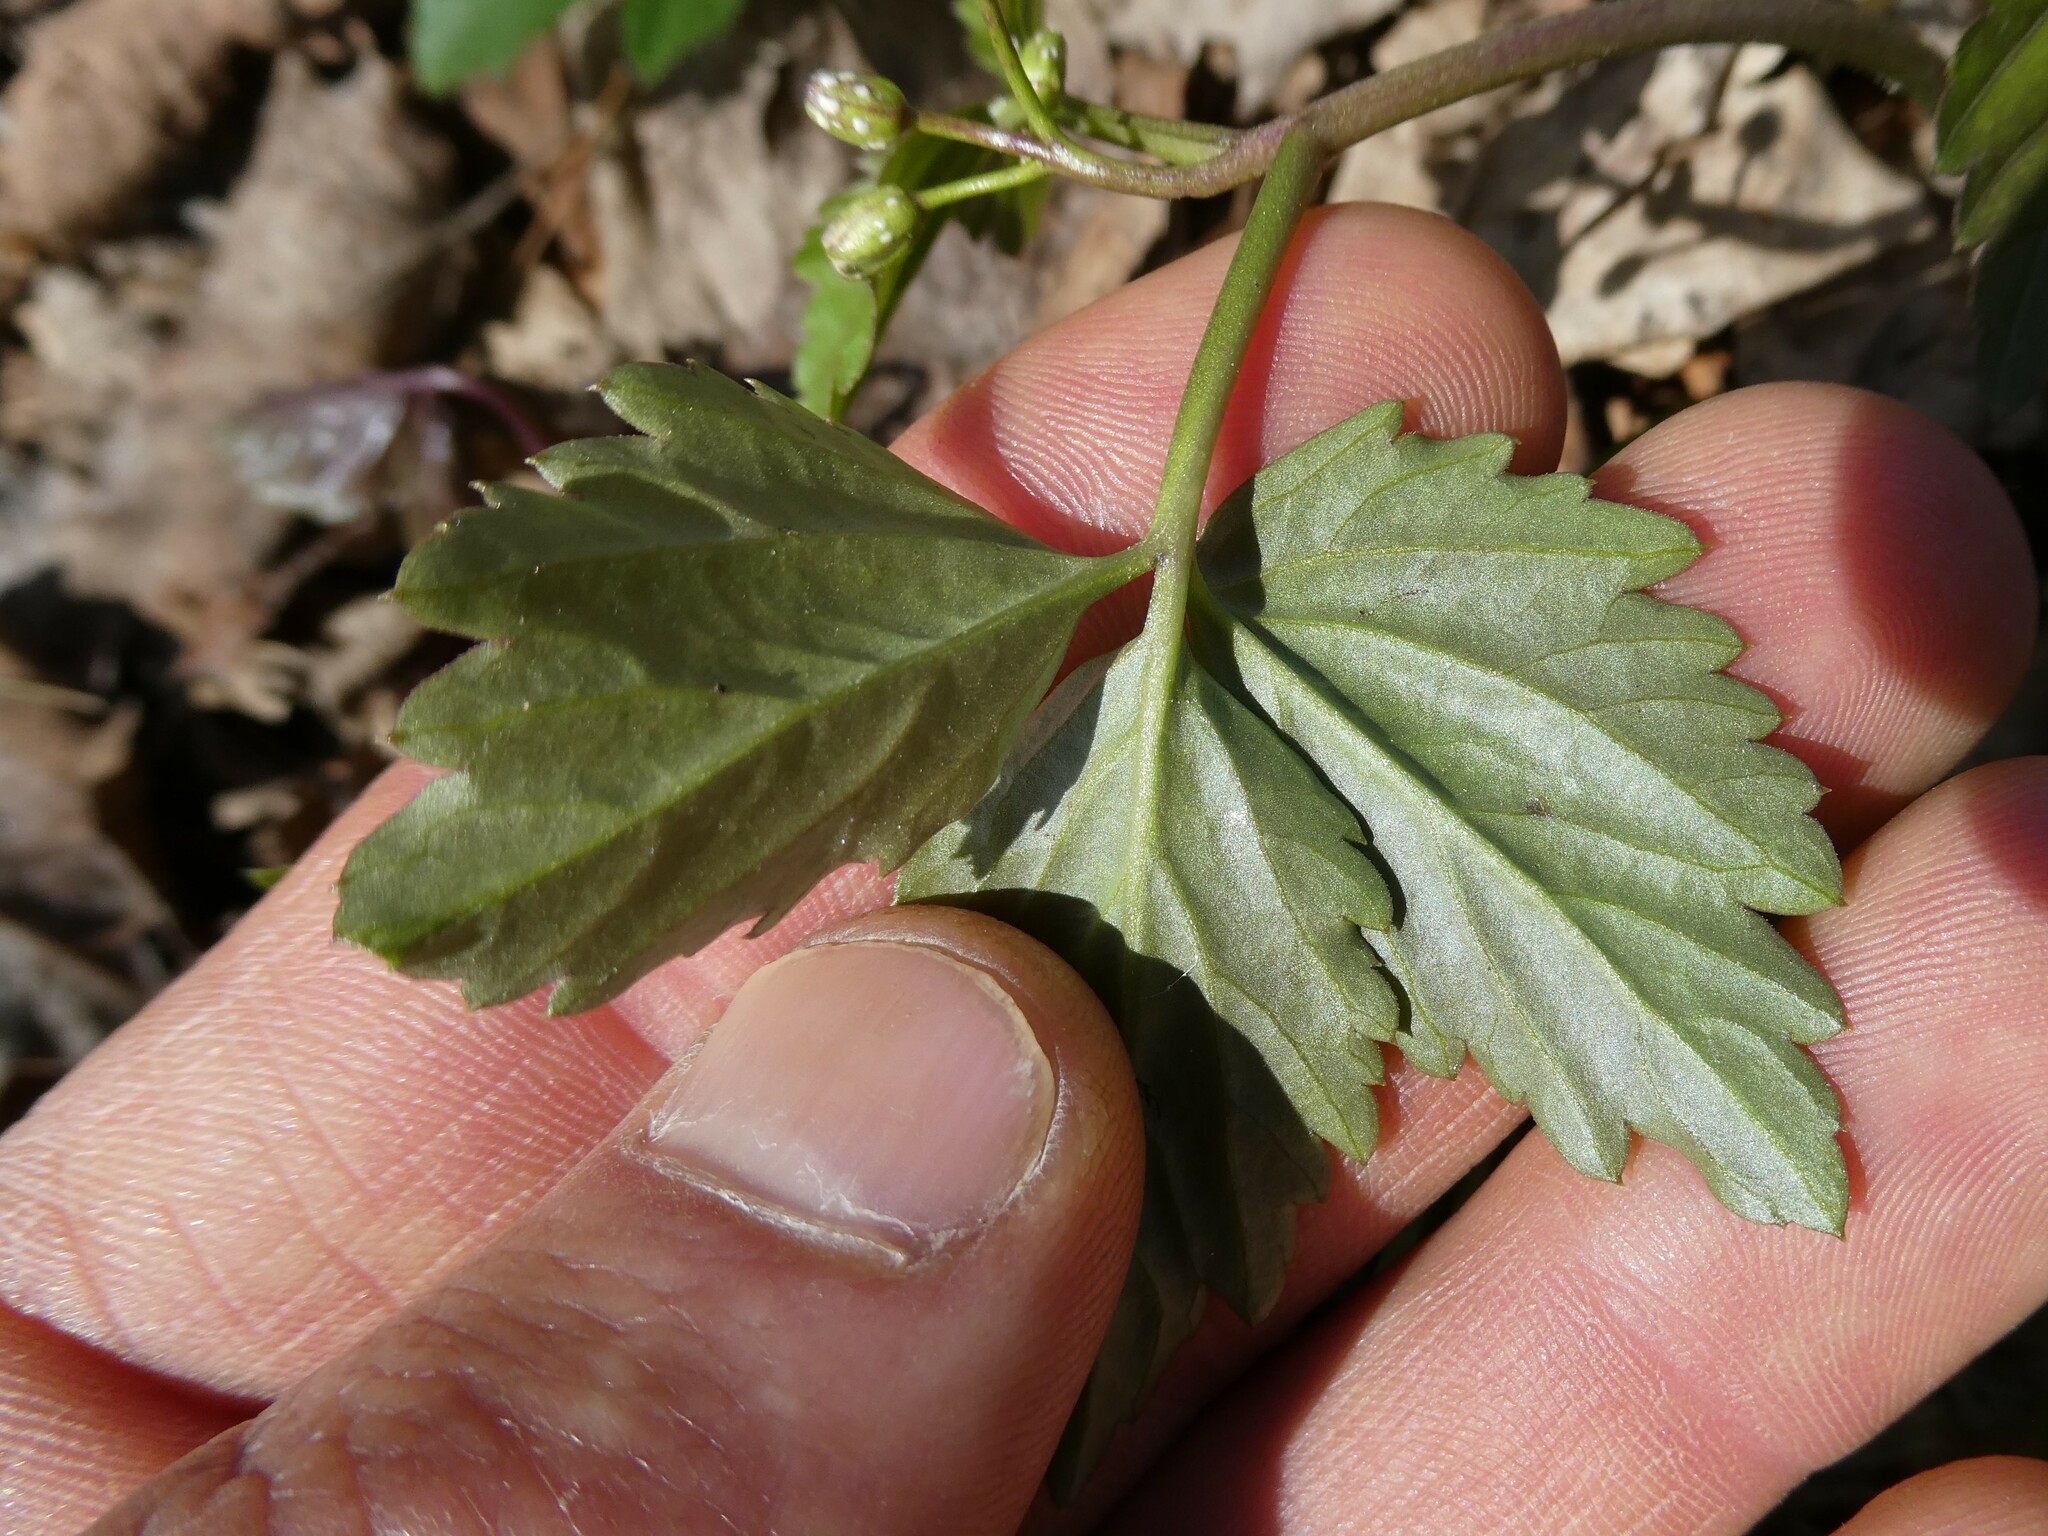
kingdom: Plantae
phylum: Tracheophyta
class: Magnoliopsida
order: Brassicales
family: Brassicaceae
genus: Cardamine
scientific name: Cardamine diphylla
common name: Broad-leaved toothwort
